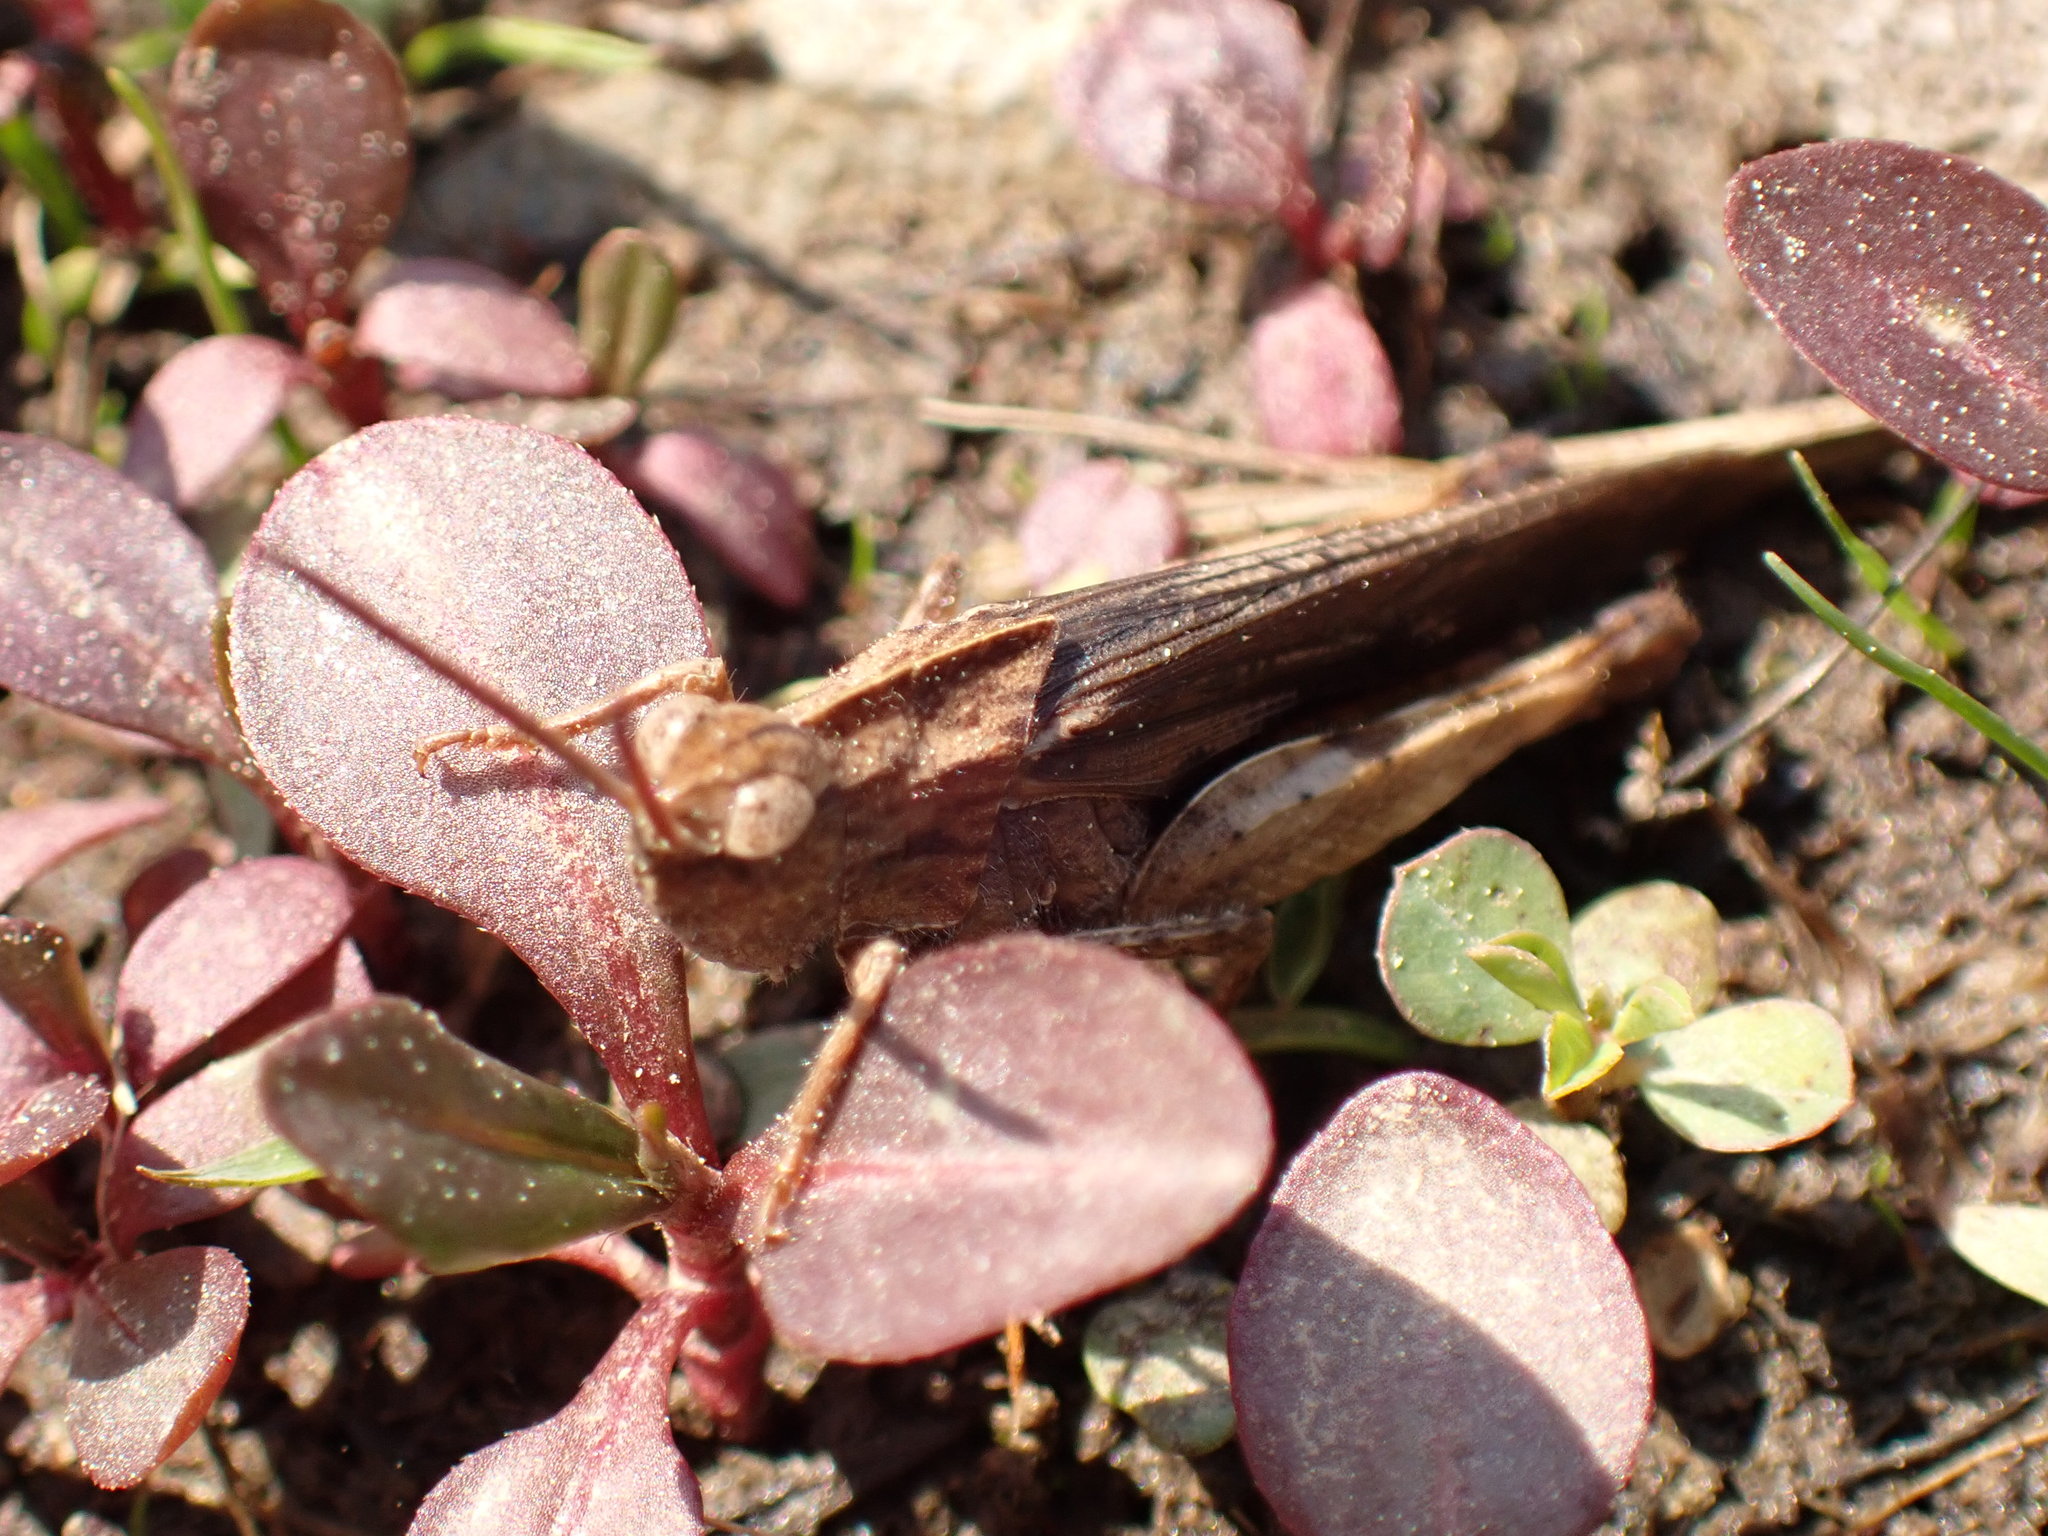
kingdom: Animalia
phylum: Arthropoda
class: Insecta
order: Orthoptera
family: Acrididae
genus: Chortophaga
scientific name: Chortophaga viridifasciata
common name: Green-striped grasshopper
